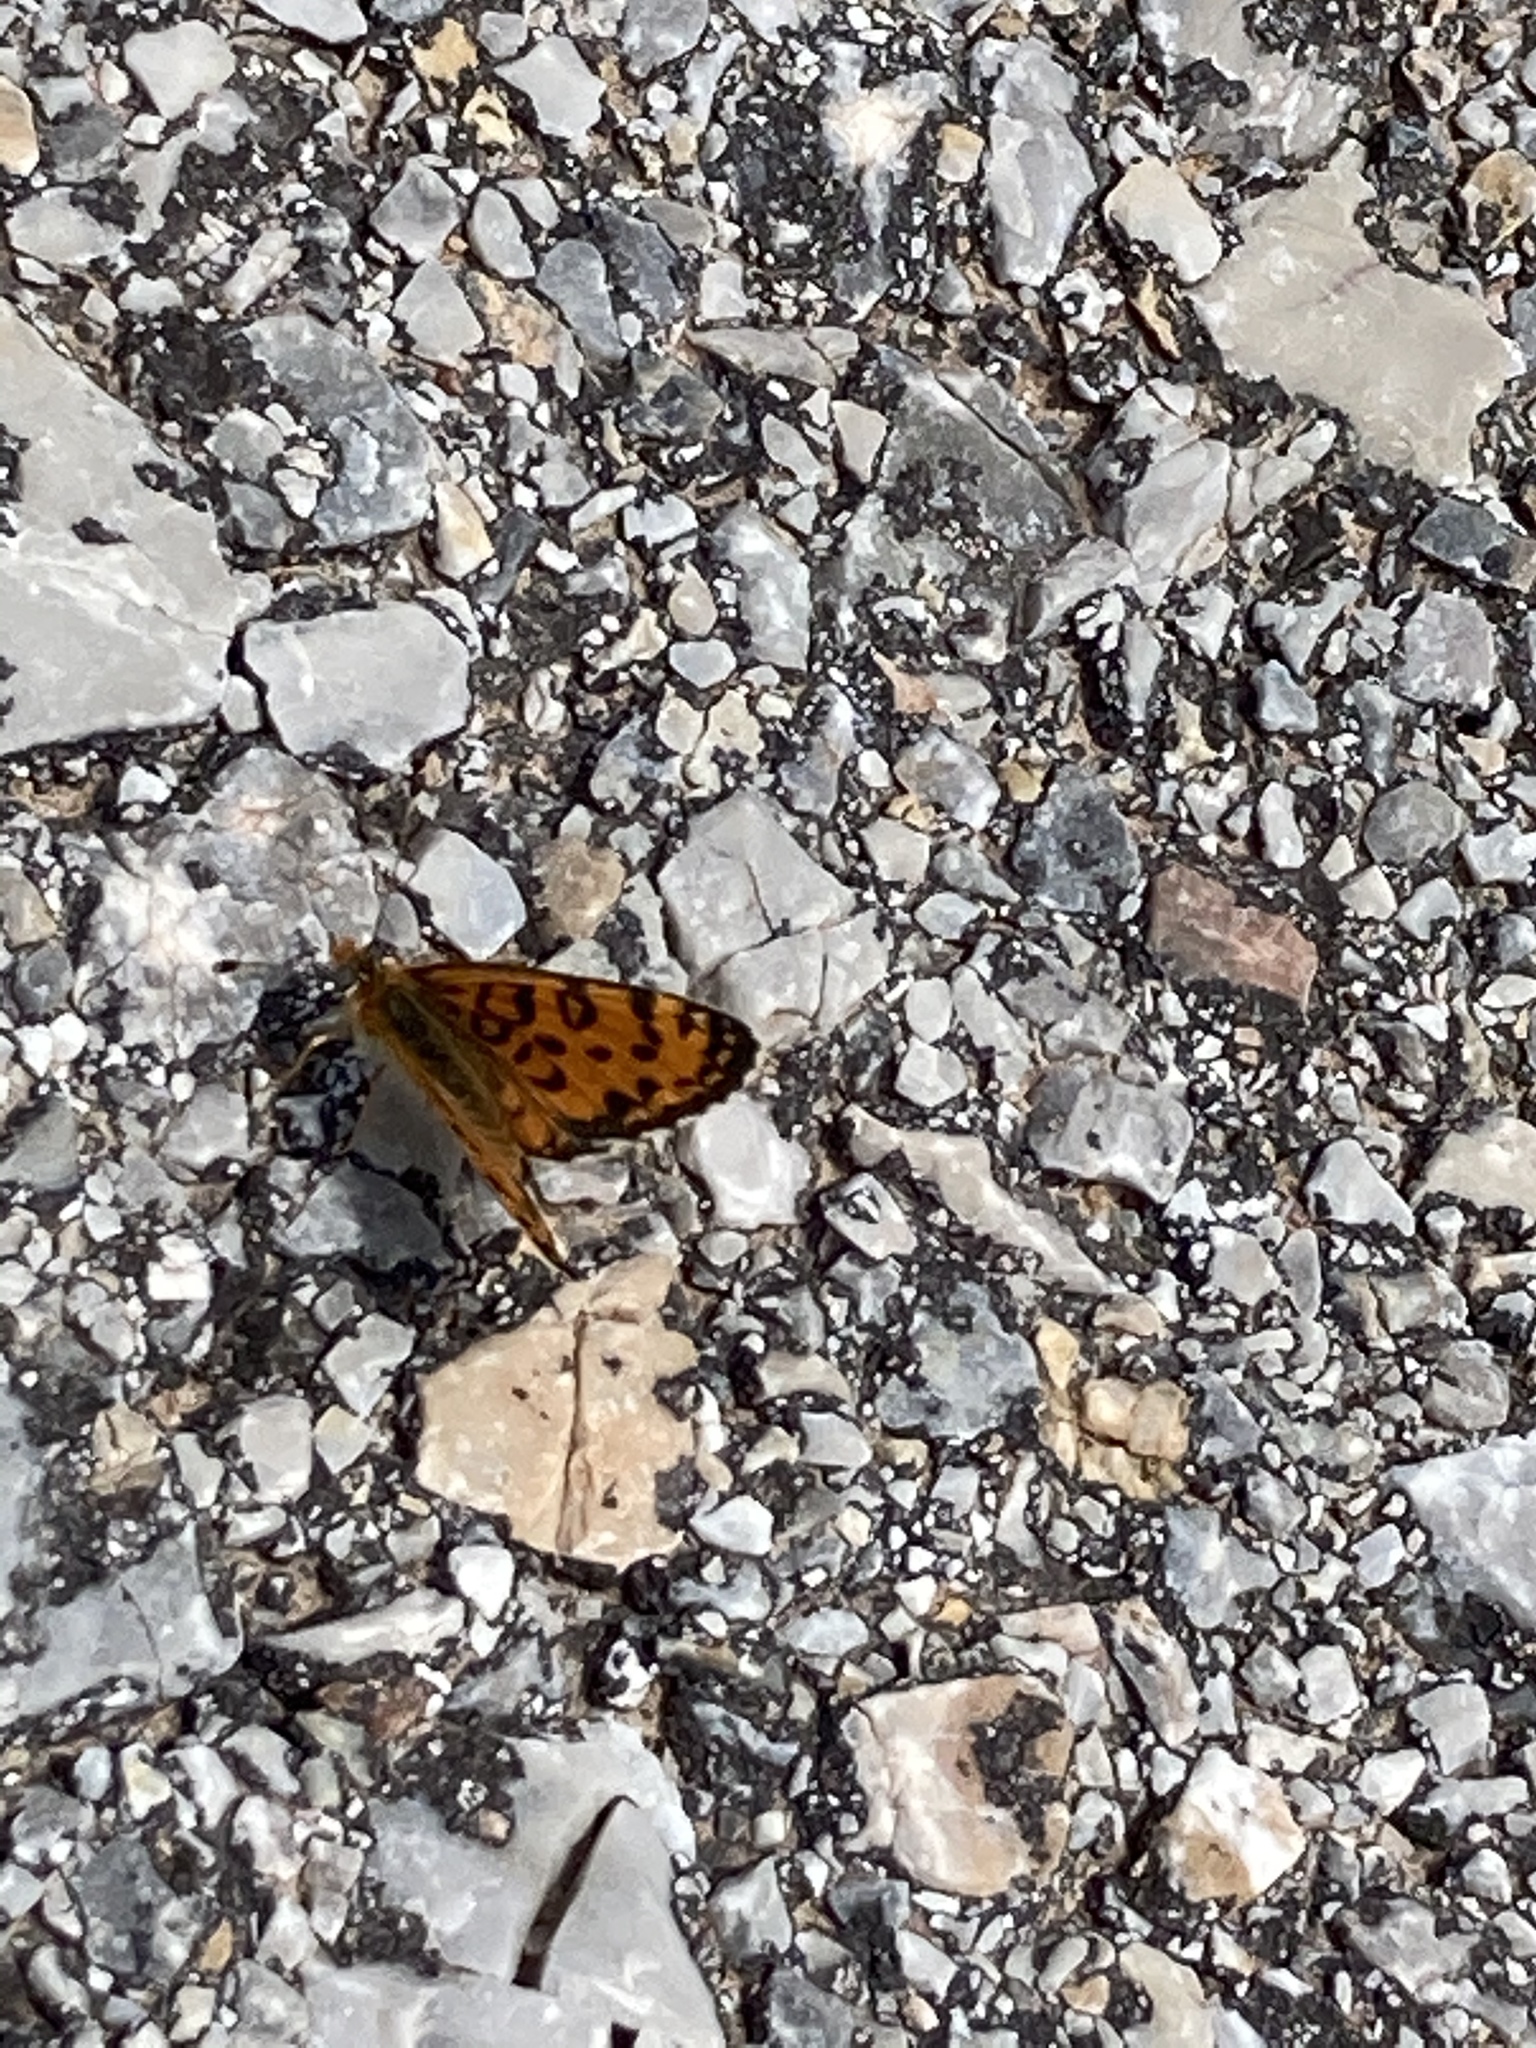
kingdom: Animalia
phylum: Arthropoda
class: Insecta
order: Lepidoptera
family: Nymphalidae
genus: Melitaea
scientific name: Melitaea trivia
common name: Lesser spotted fritillary
